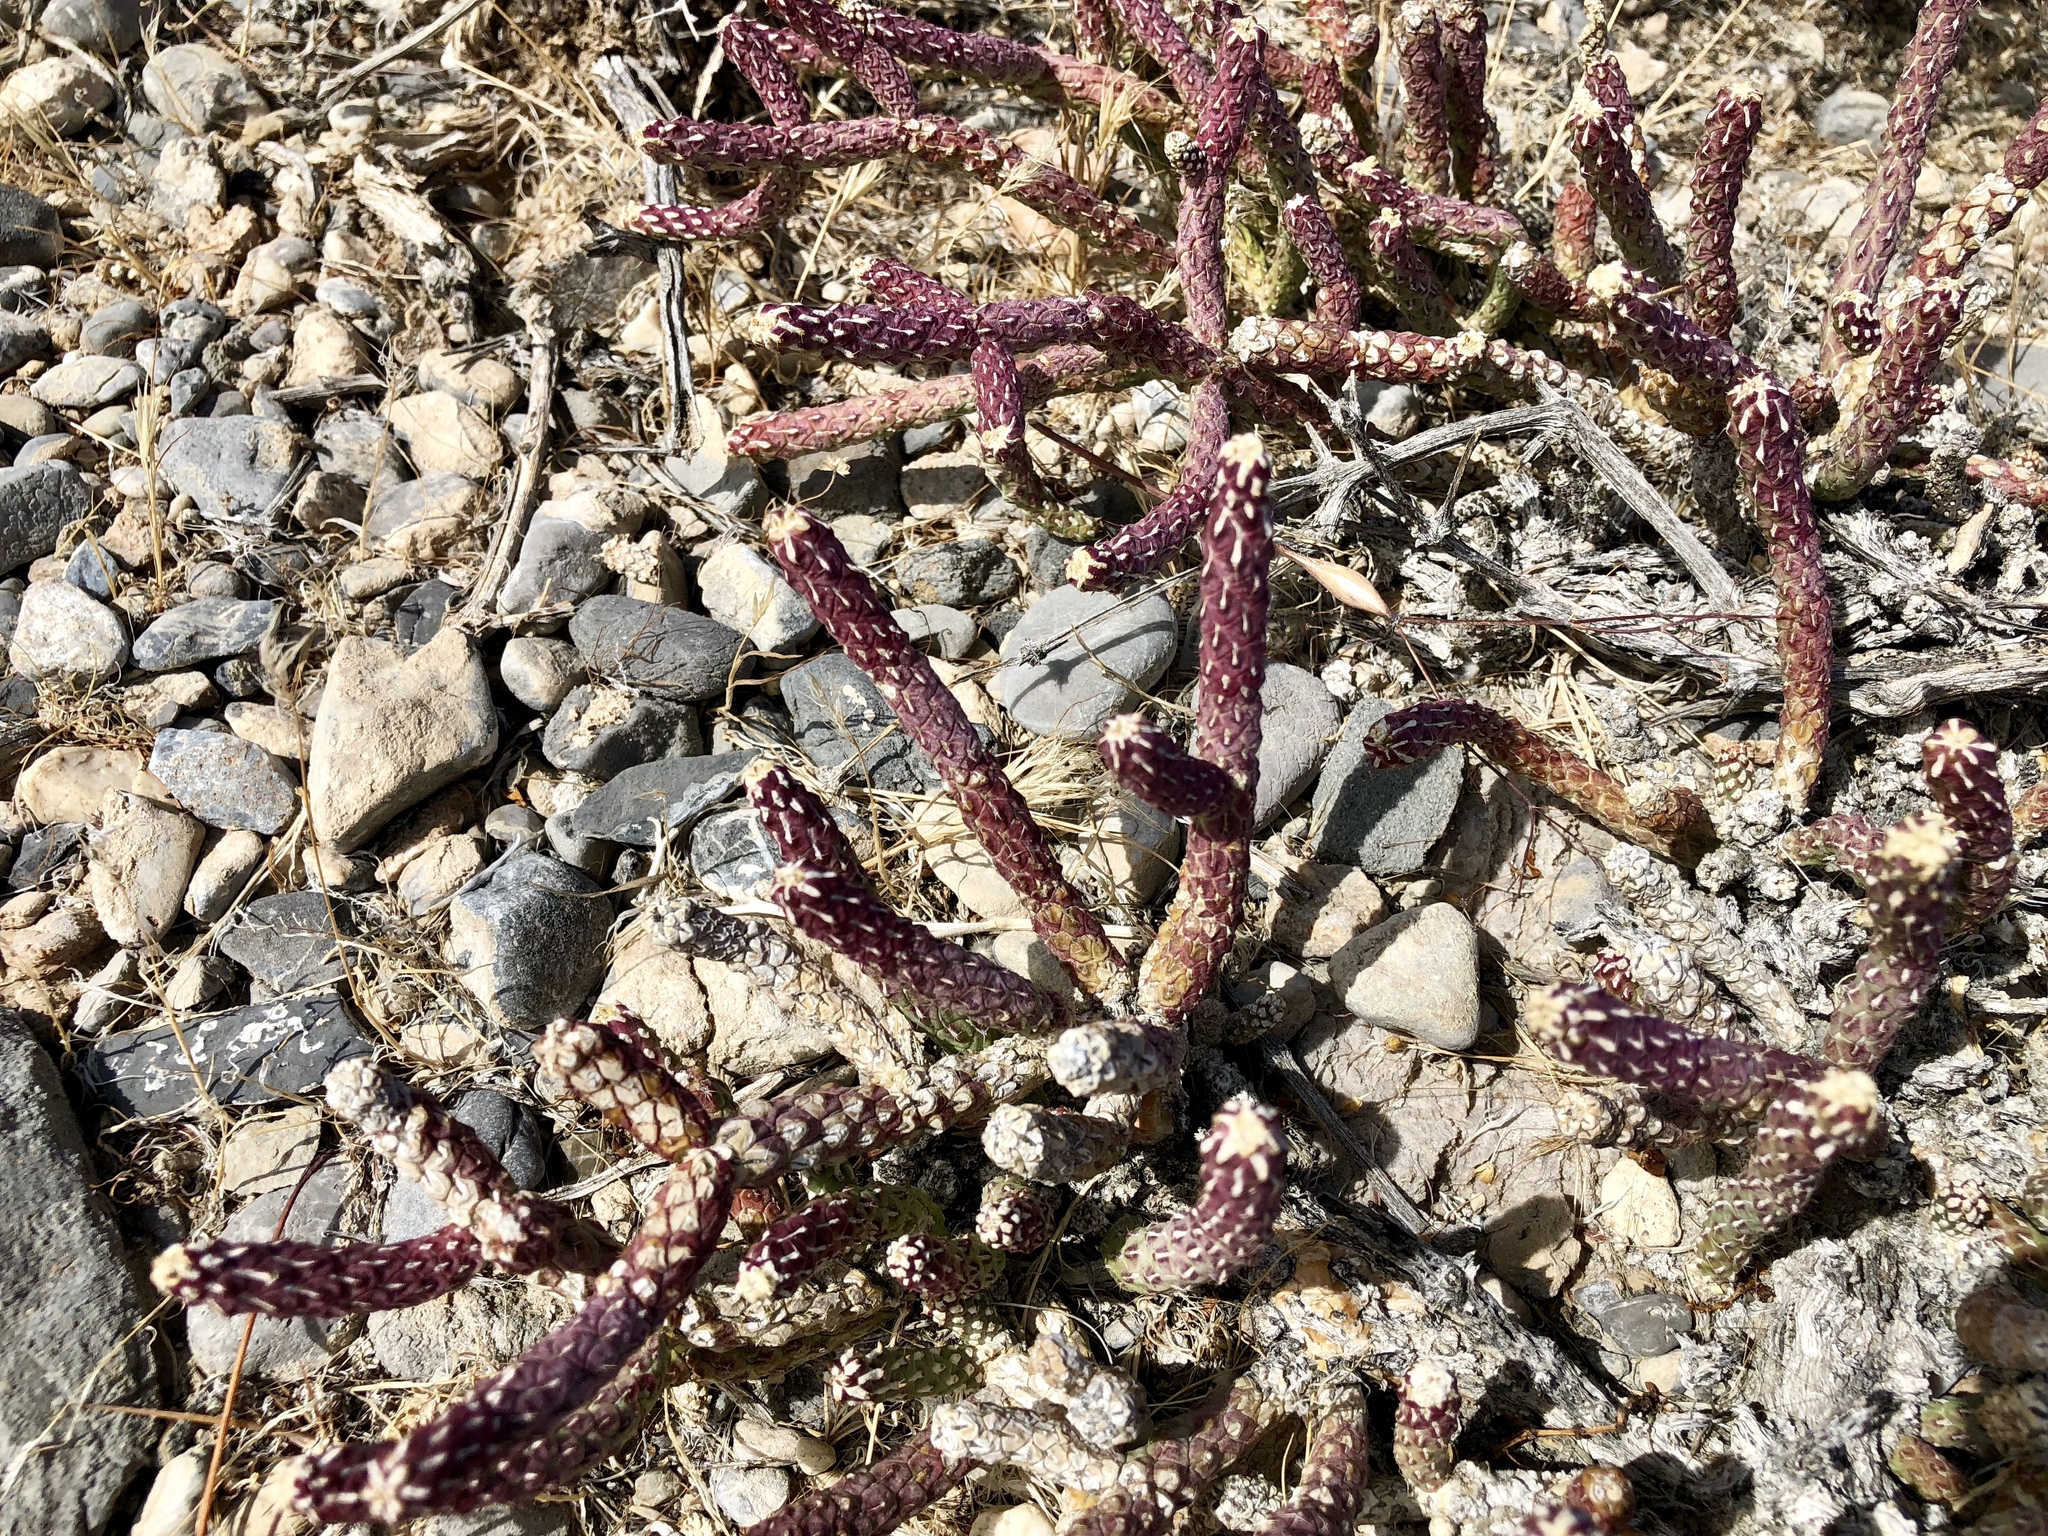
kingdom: Plantae
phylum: Tracheophyta
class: Magnoliopsida
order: Caryophyllales
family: Cactaceae
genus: Cylindropuntia
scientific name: Cylindropuntia ramosissima
